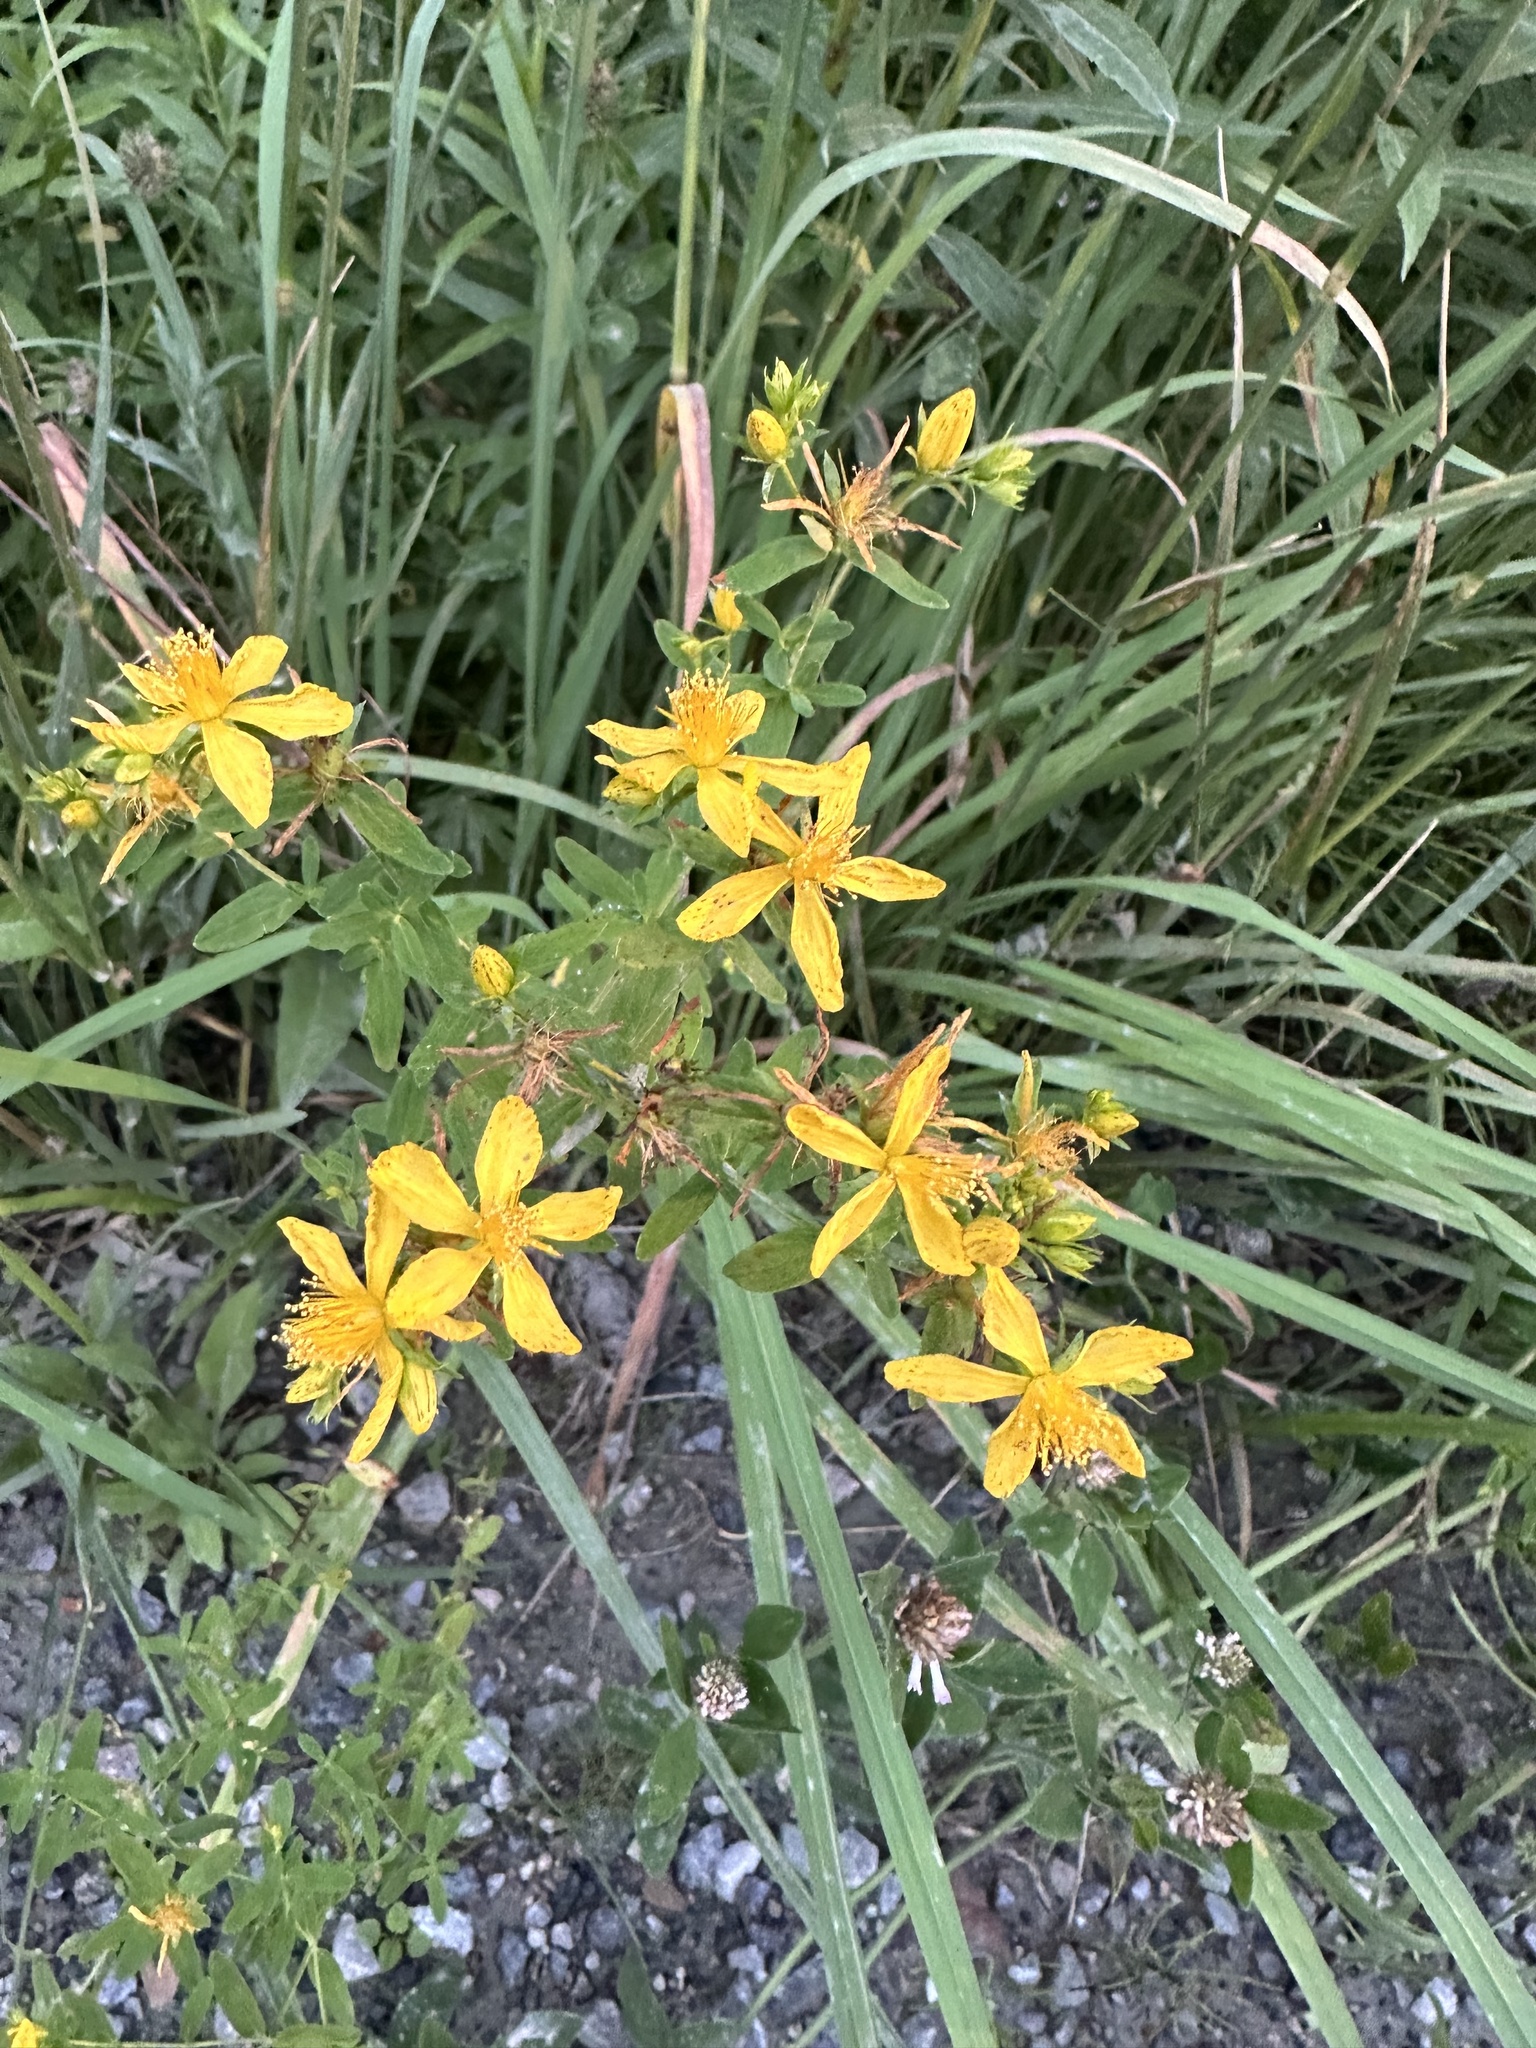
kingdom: Plantae
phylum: Tracheophyta
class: Magnoliopsida
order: Malpighiales
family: Hypericaceae
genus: Hypericum
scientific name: Hypericum perforatum
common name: Common st. johnswort
